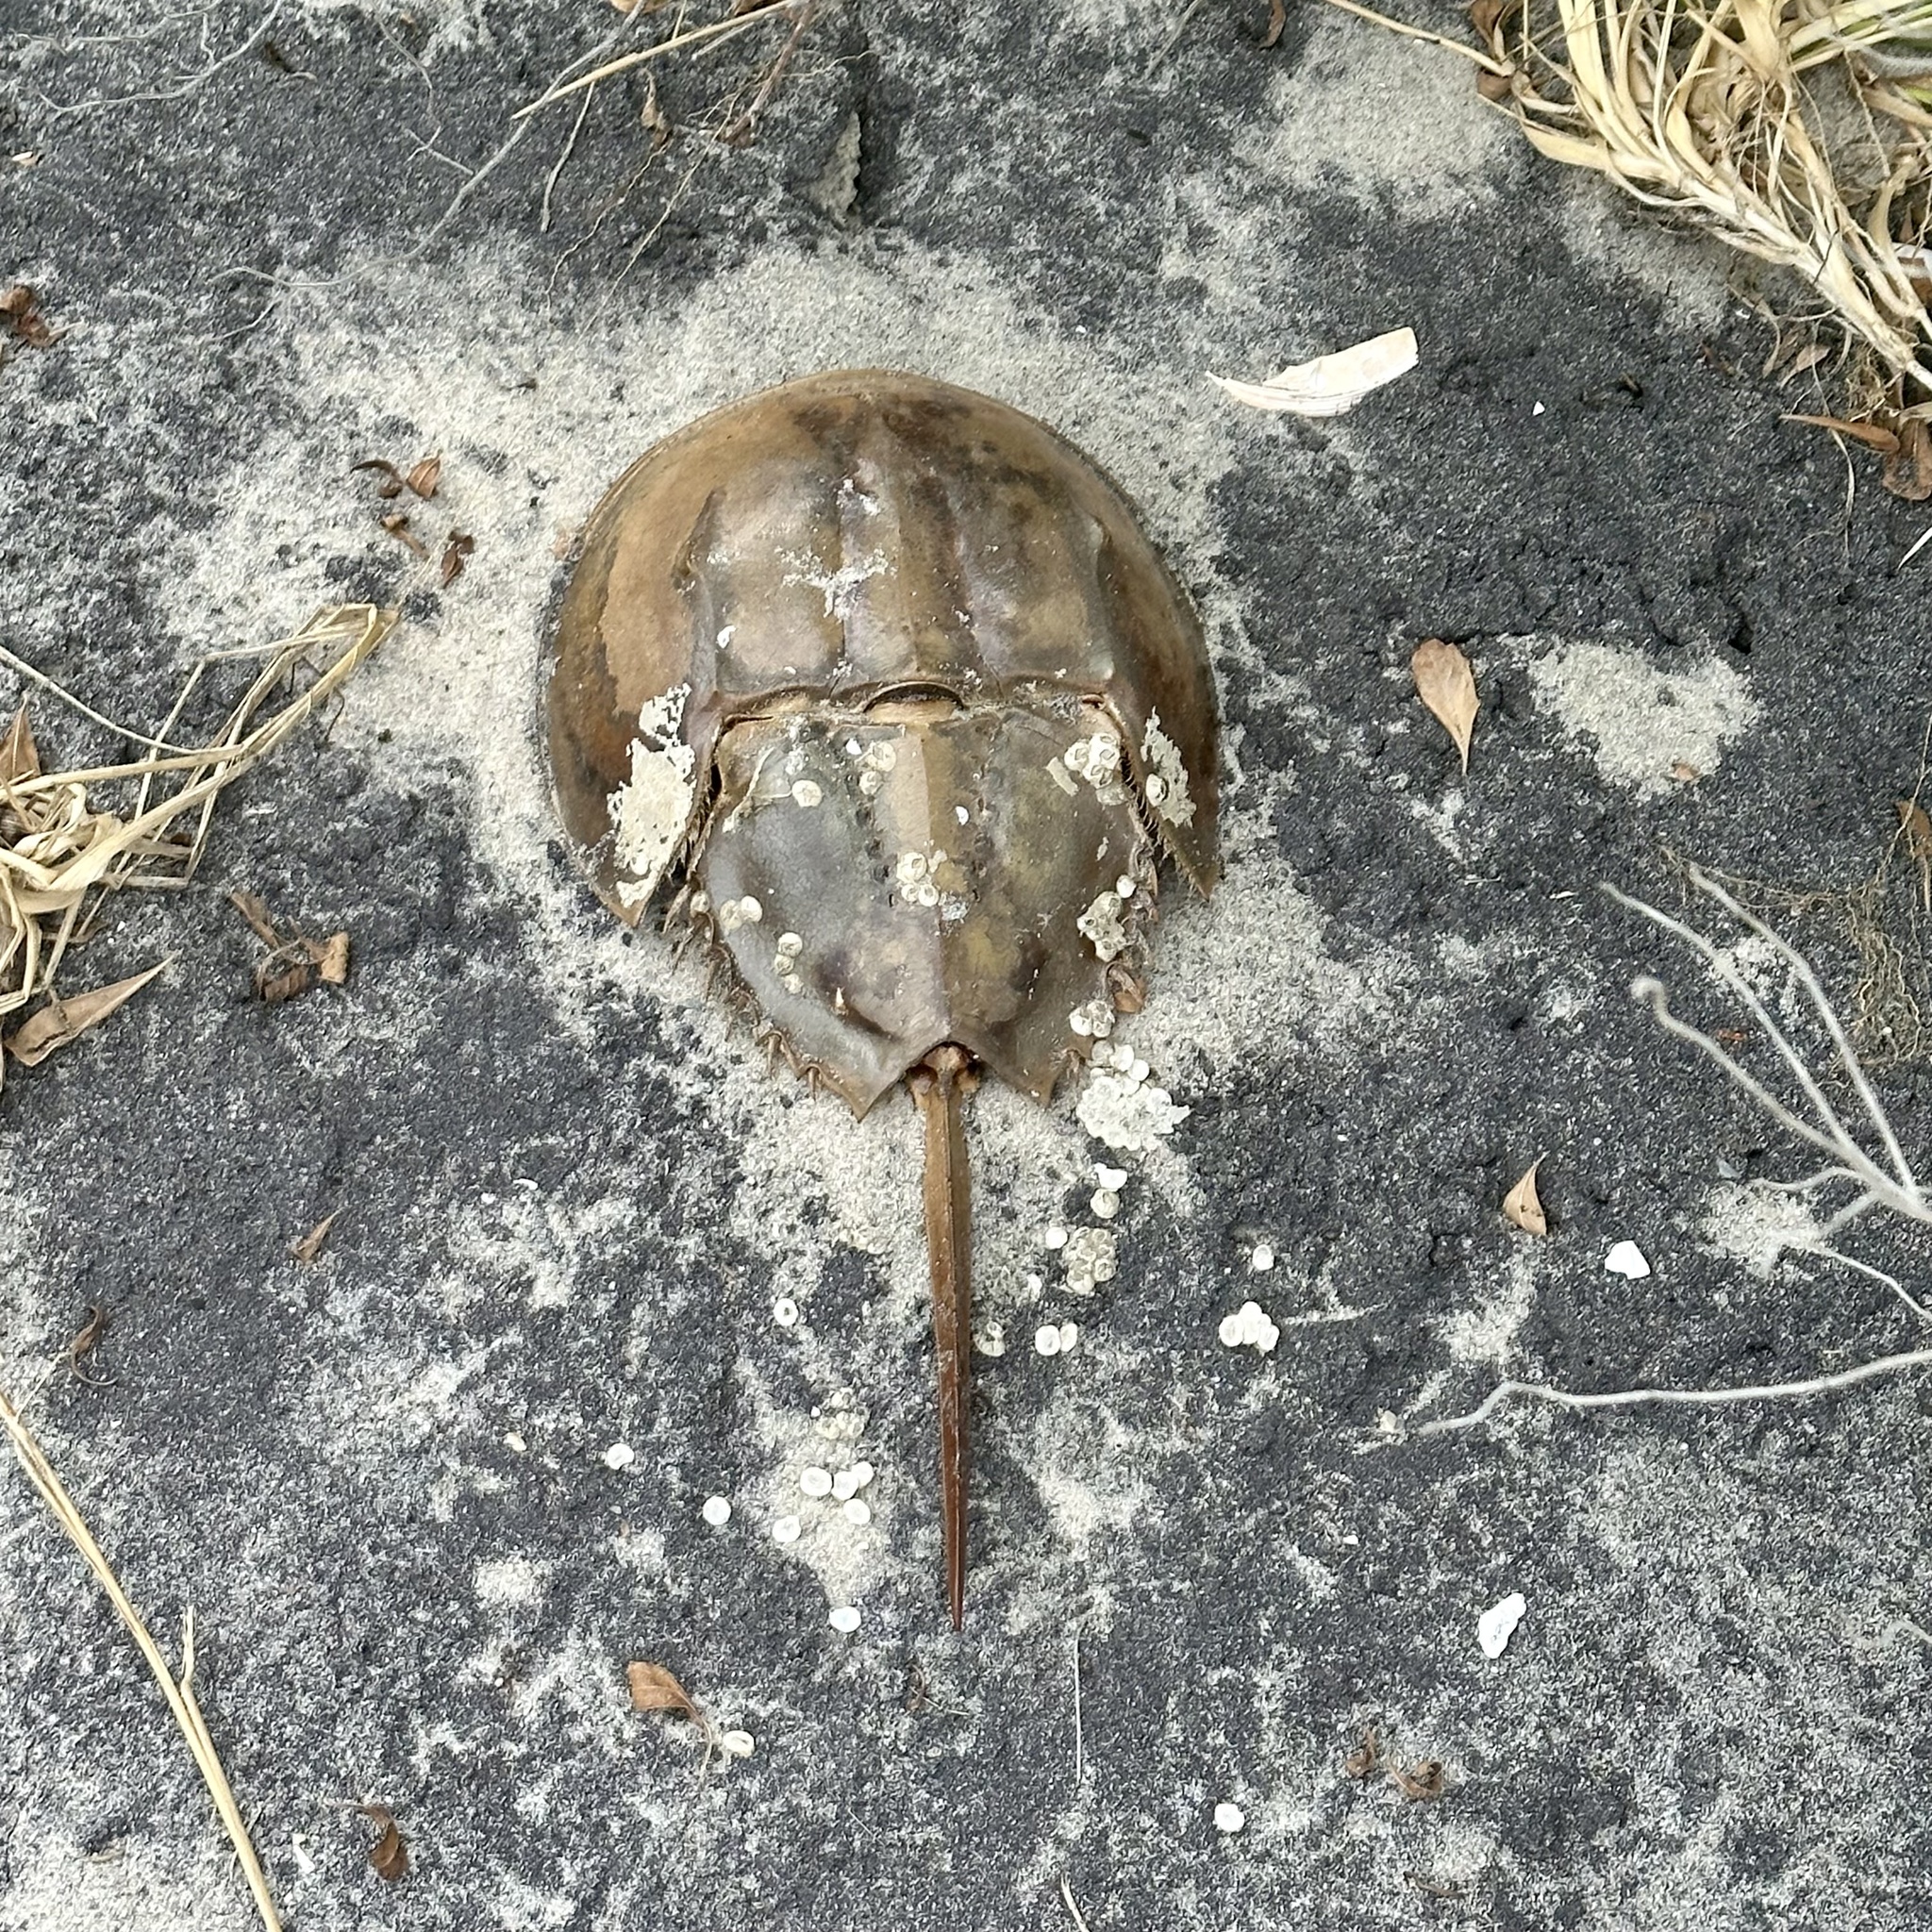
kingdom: Animalia
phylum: Arthropoda
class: Merostomata
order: Xiphosurida
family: Limulidae
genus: Limulus
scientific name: Limulus polyphemus
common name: Horseshoe crab
